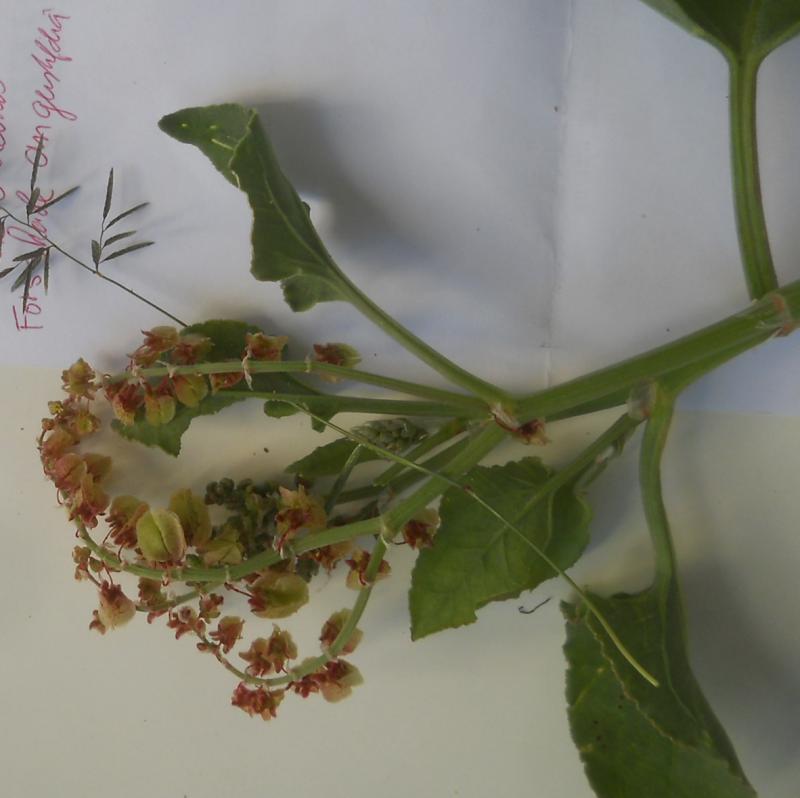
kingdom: Plantae
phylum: Tracheophyta
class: Magnoliopsida
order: Caryophyllales
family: Polygonaceae
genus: Rumex
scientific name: Rumex vesicarius
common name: Bladder dock
